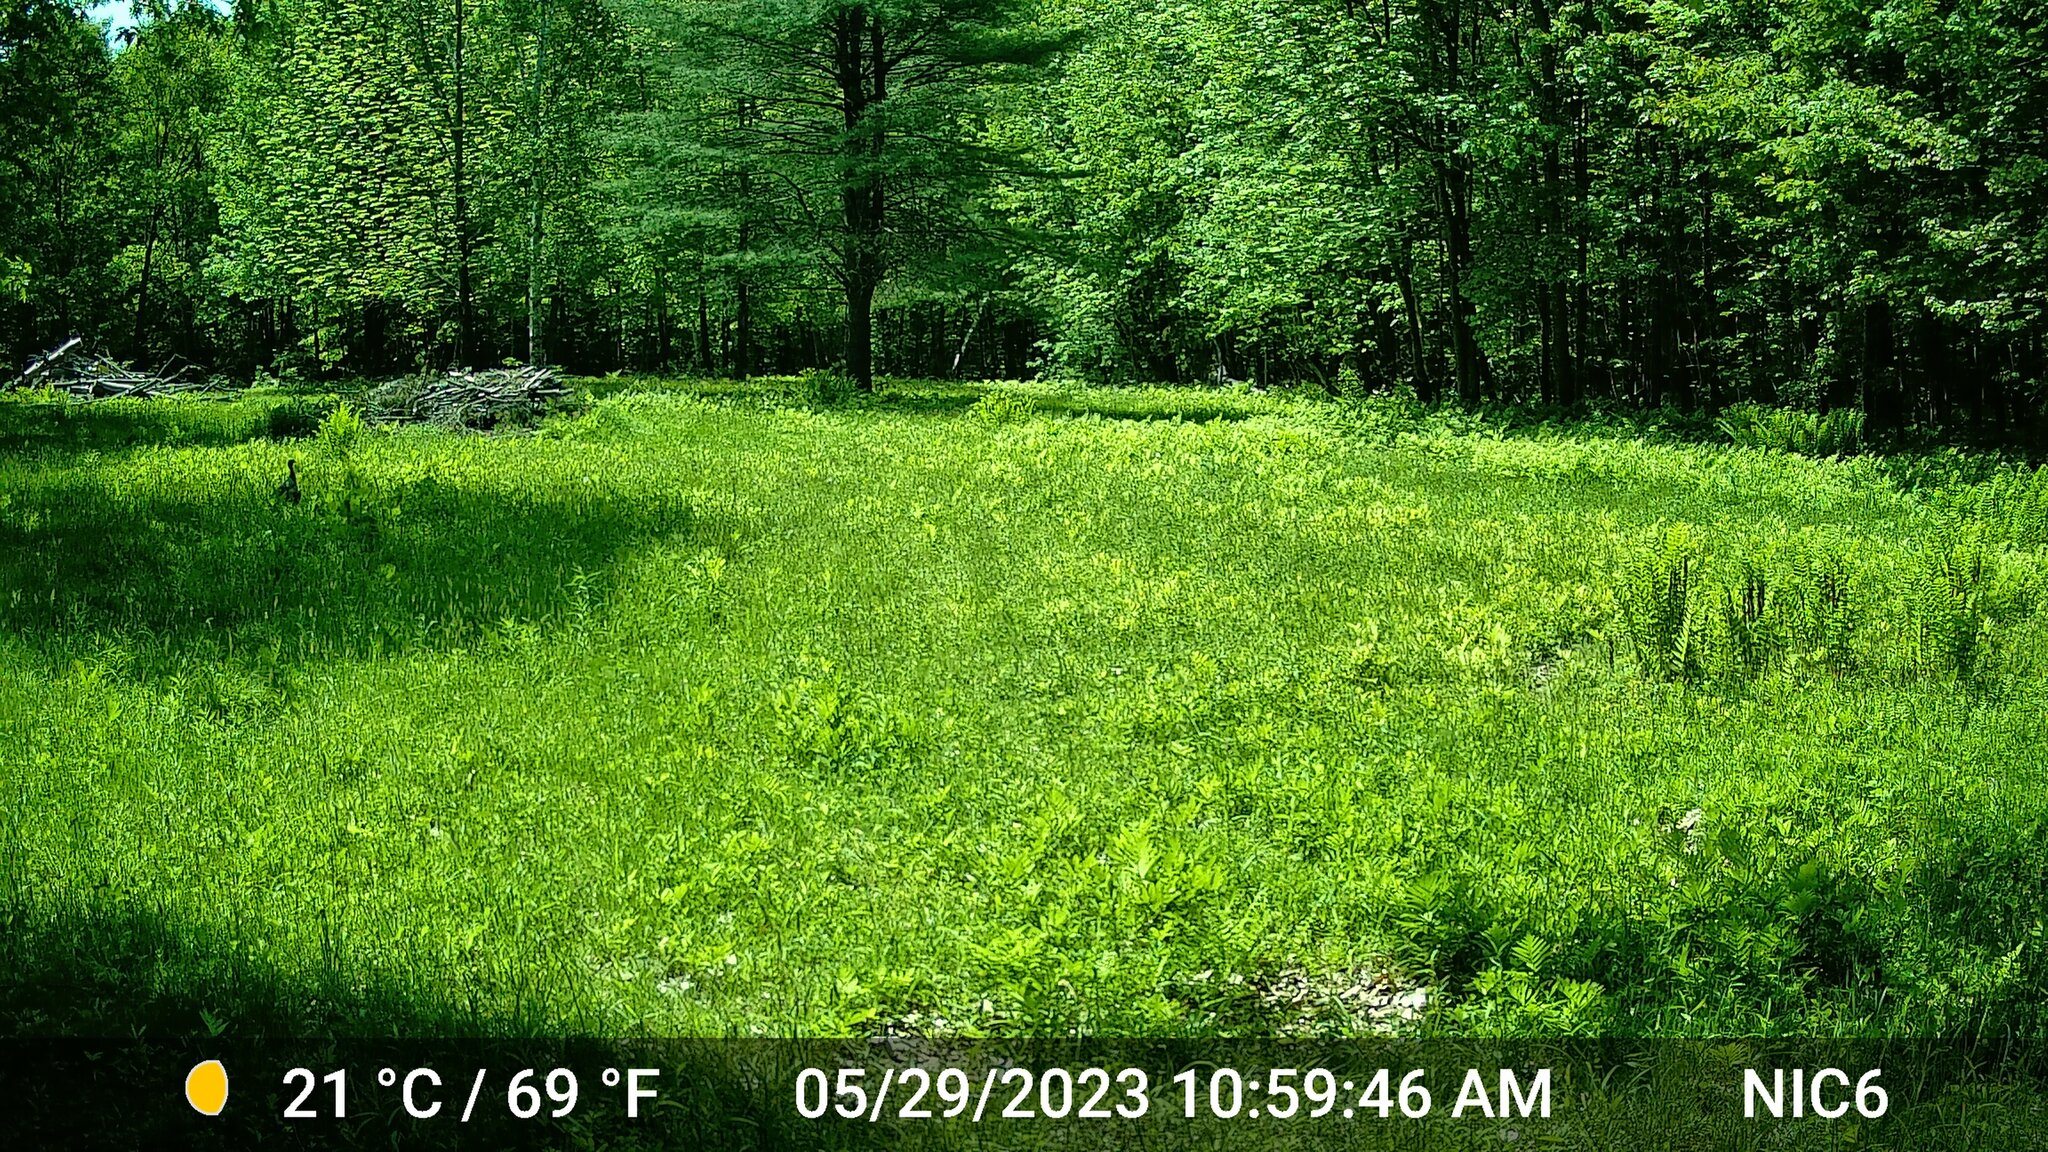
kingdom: Animalia
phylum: Chordata
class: Aves
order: Galliformes
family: Phasianidae
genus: Meleagris
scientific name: Meleagris gallopavo
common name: Wild turkey
